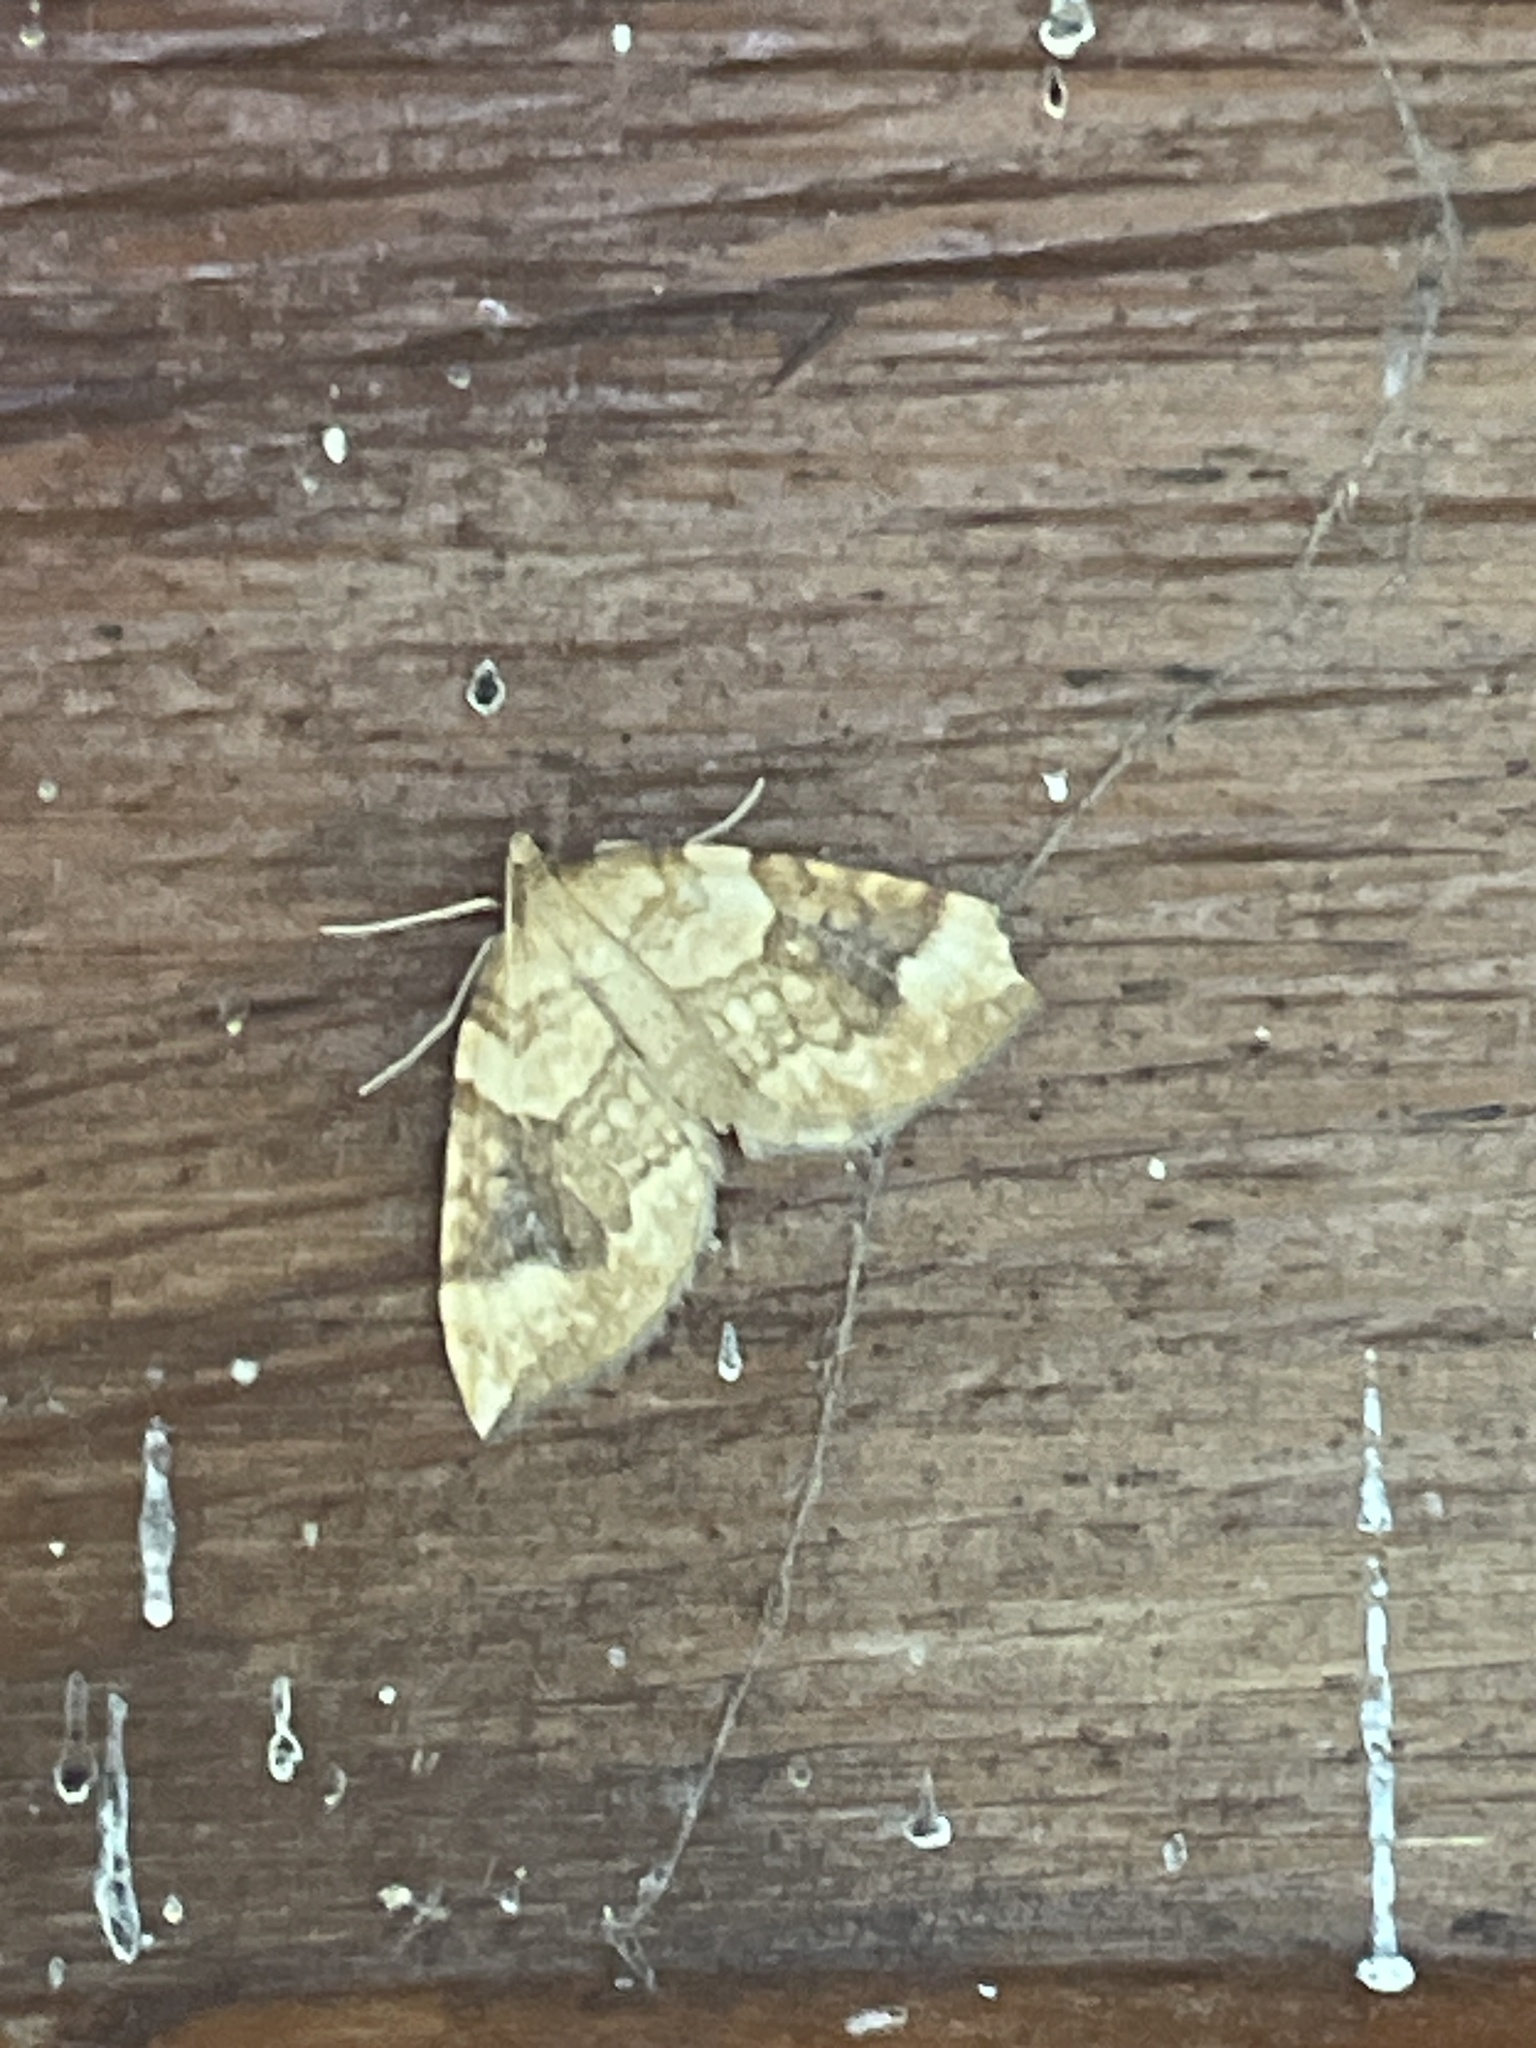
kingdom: Animalia
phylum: Arthropoda
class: Insecta
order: Lepidoptera
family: Geometridae
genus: Eulithis
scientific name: Eulithis populata
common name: Northern spinach
